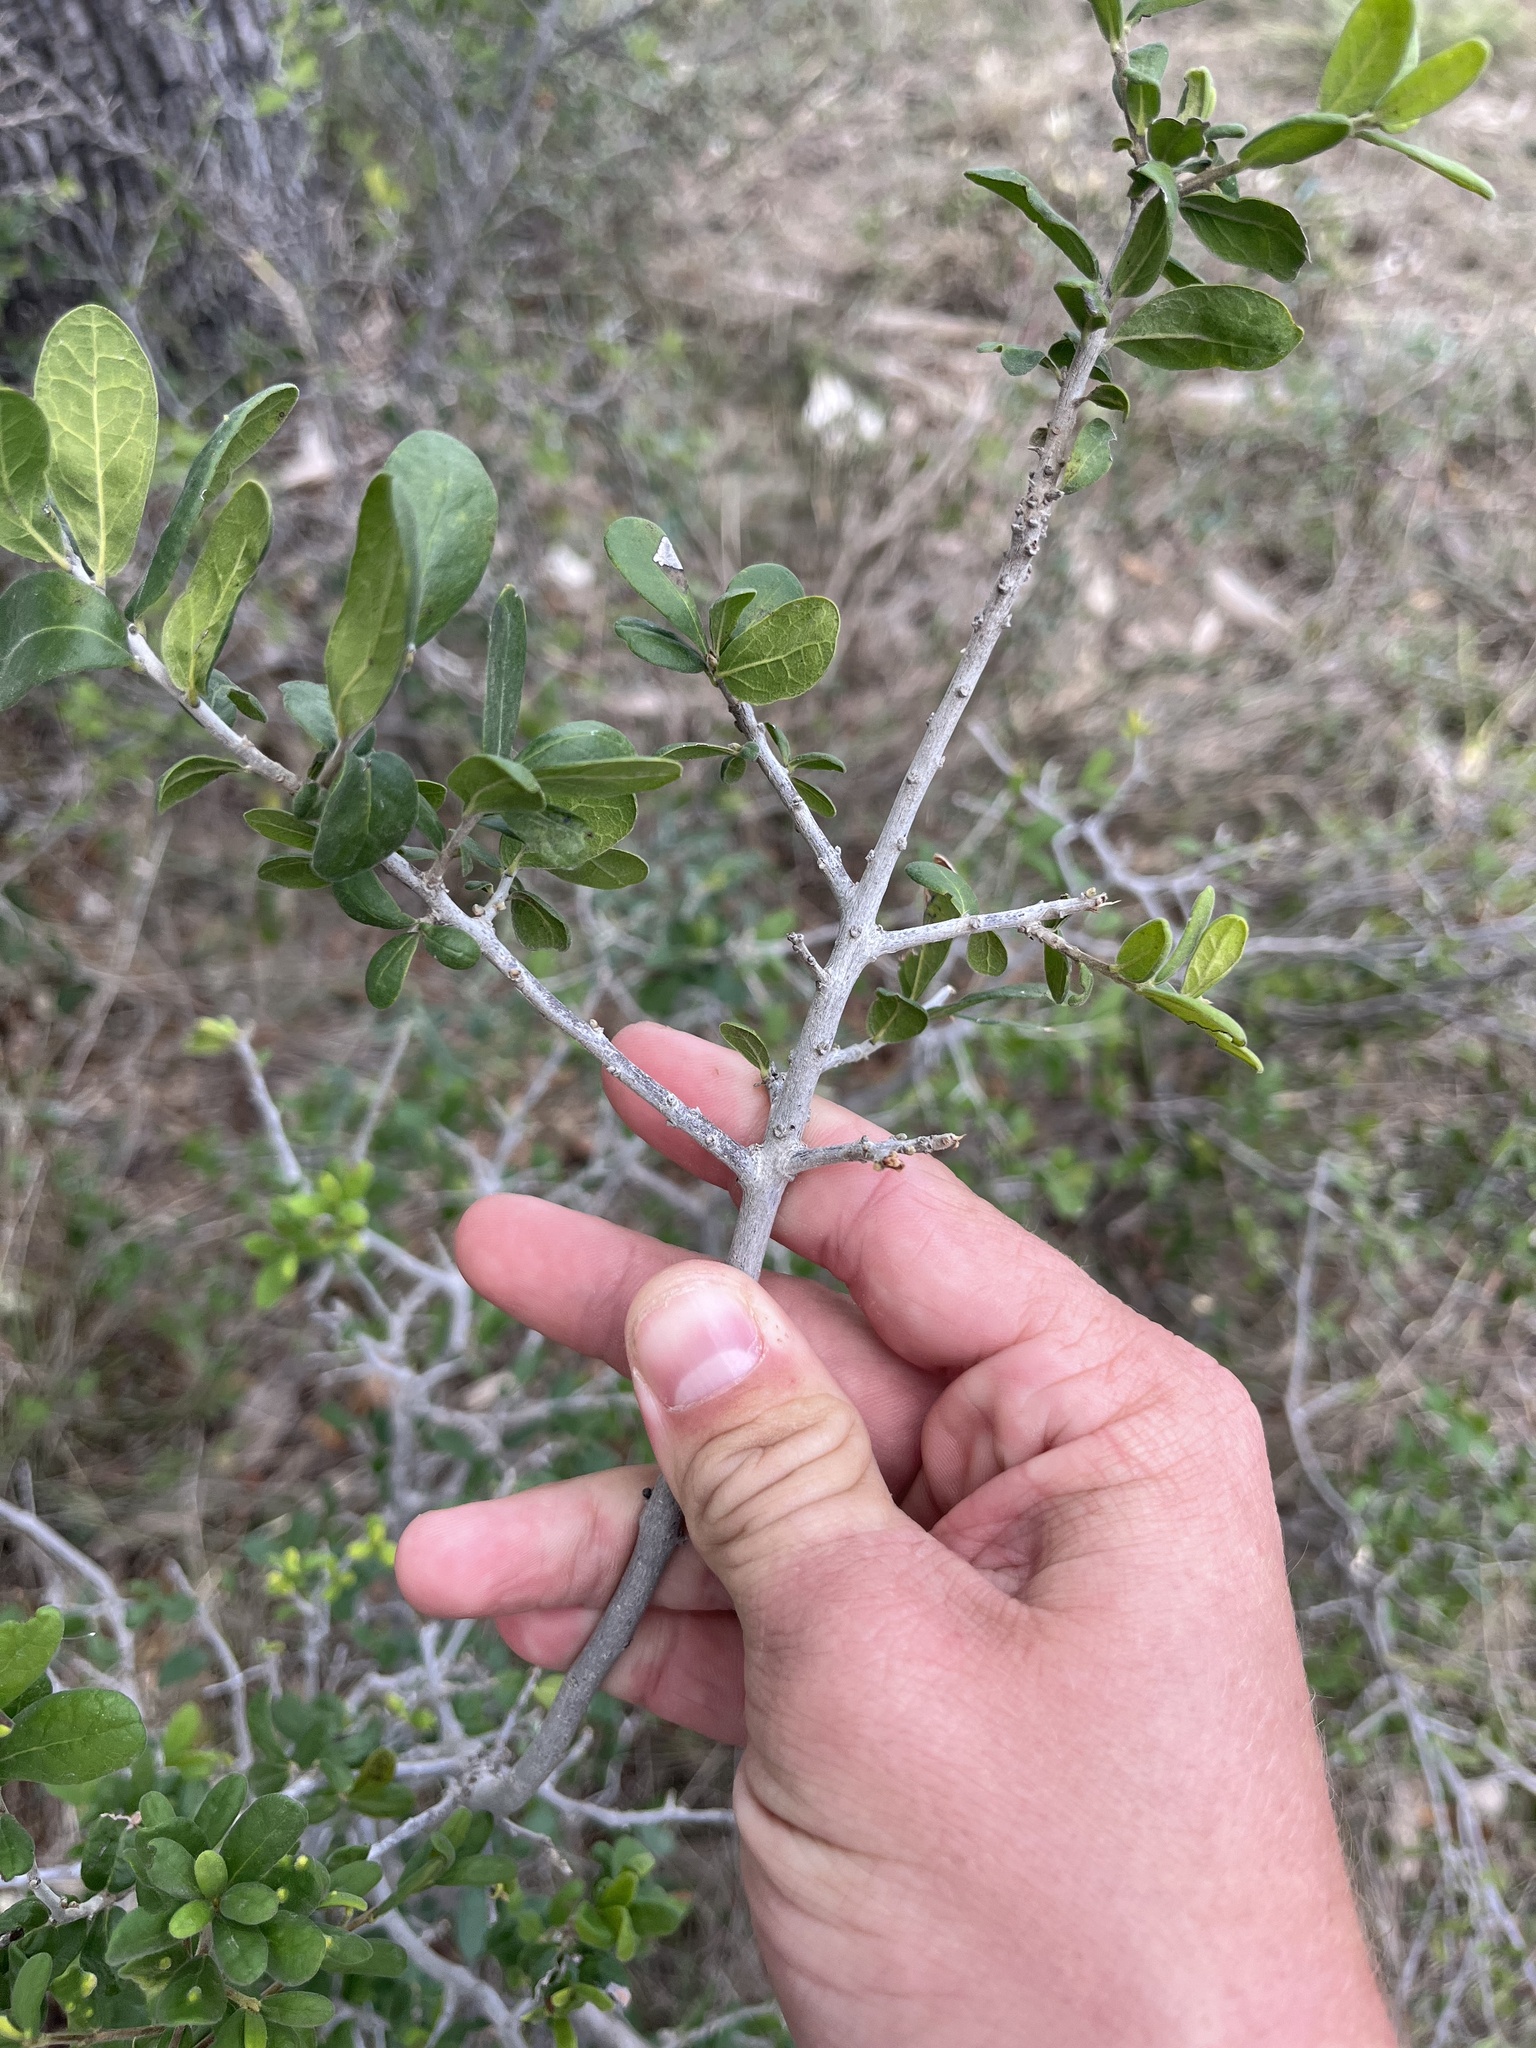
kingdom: Plantae
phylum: Tracheophyta
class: Magnoliopsida
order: Ericales
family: Ebenaceae
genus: Diospyros
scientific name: Diospyros texana
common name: Texas persimmon
